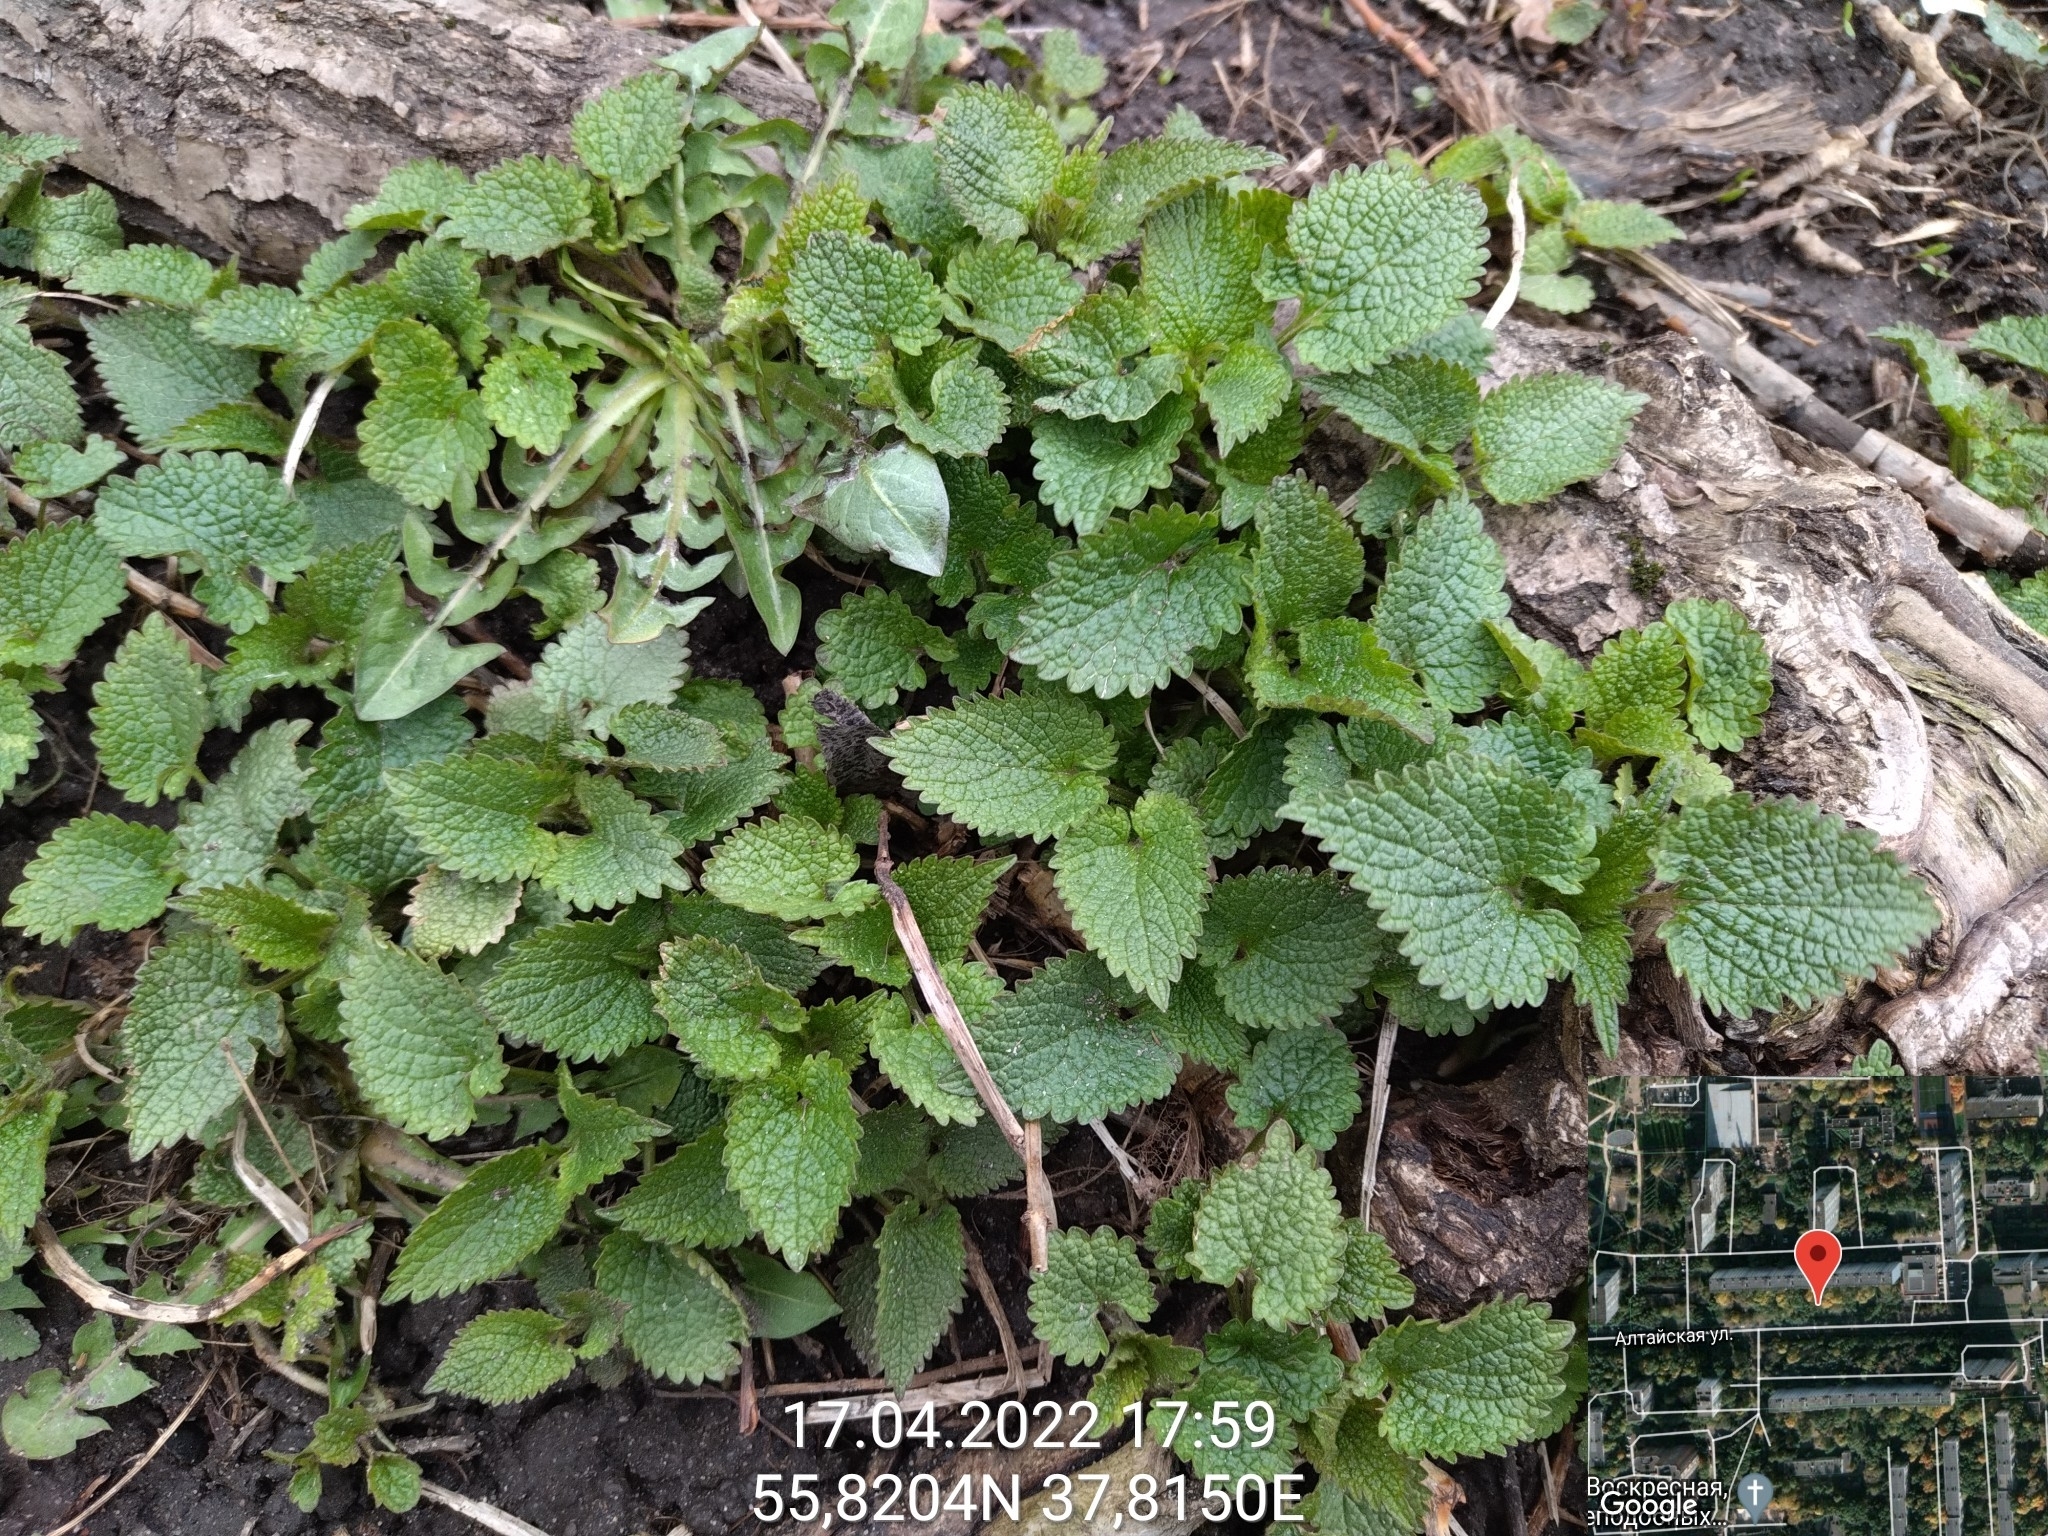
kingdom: Plantae
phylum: Tracheophyta
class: Magnoliopsida
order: Lamiales
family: Lamiaceae
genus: Lamium
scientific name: Lamium album
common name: White dead-nettle
